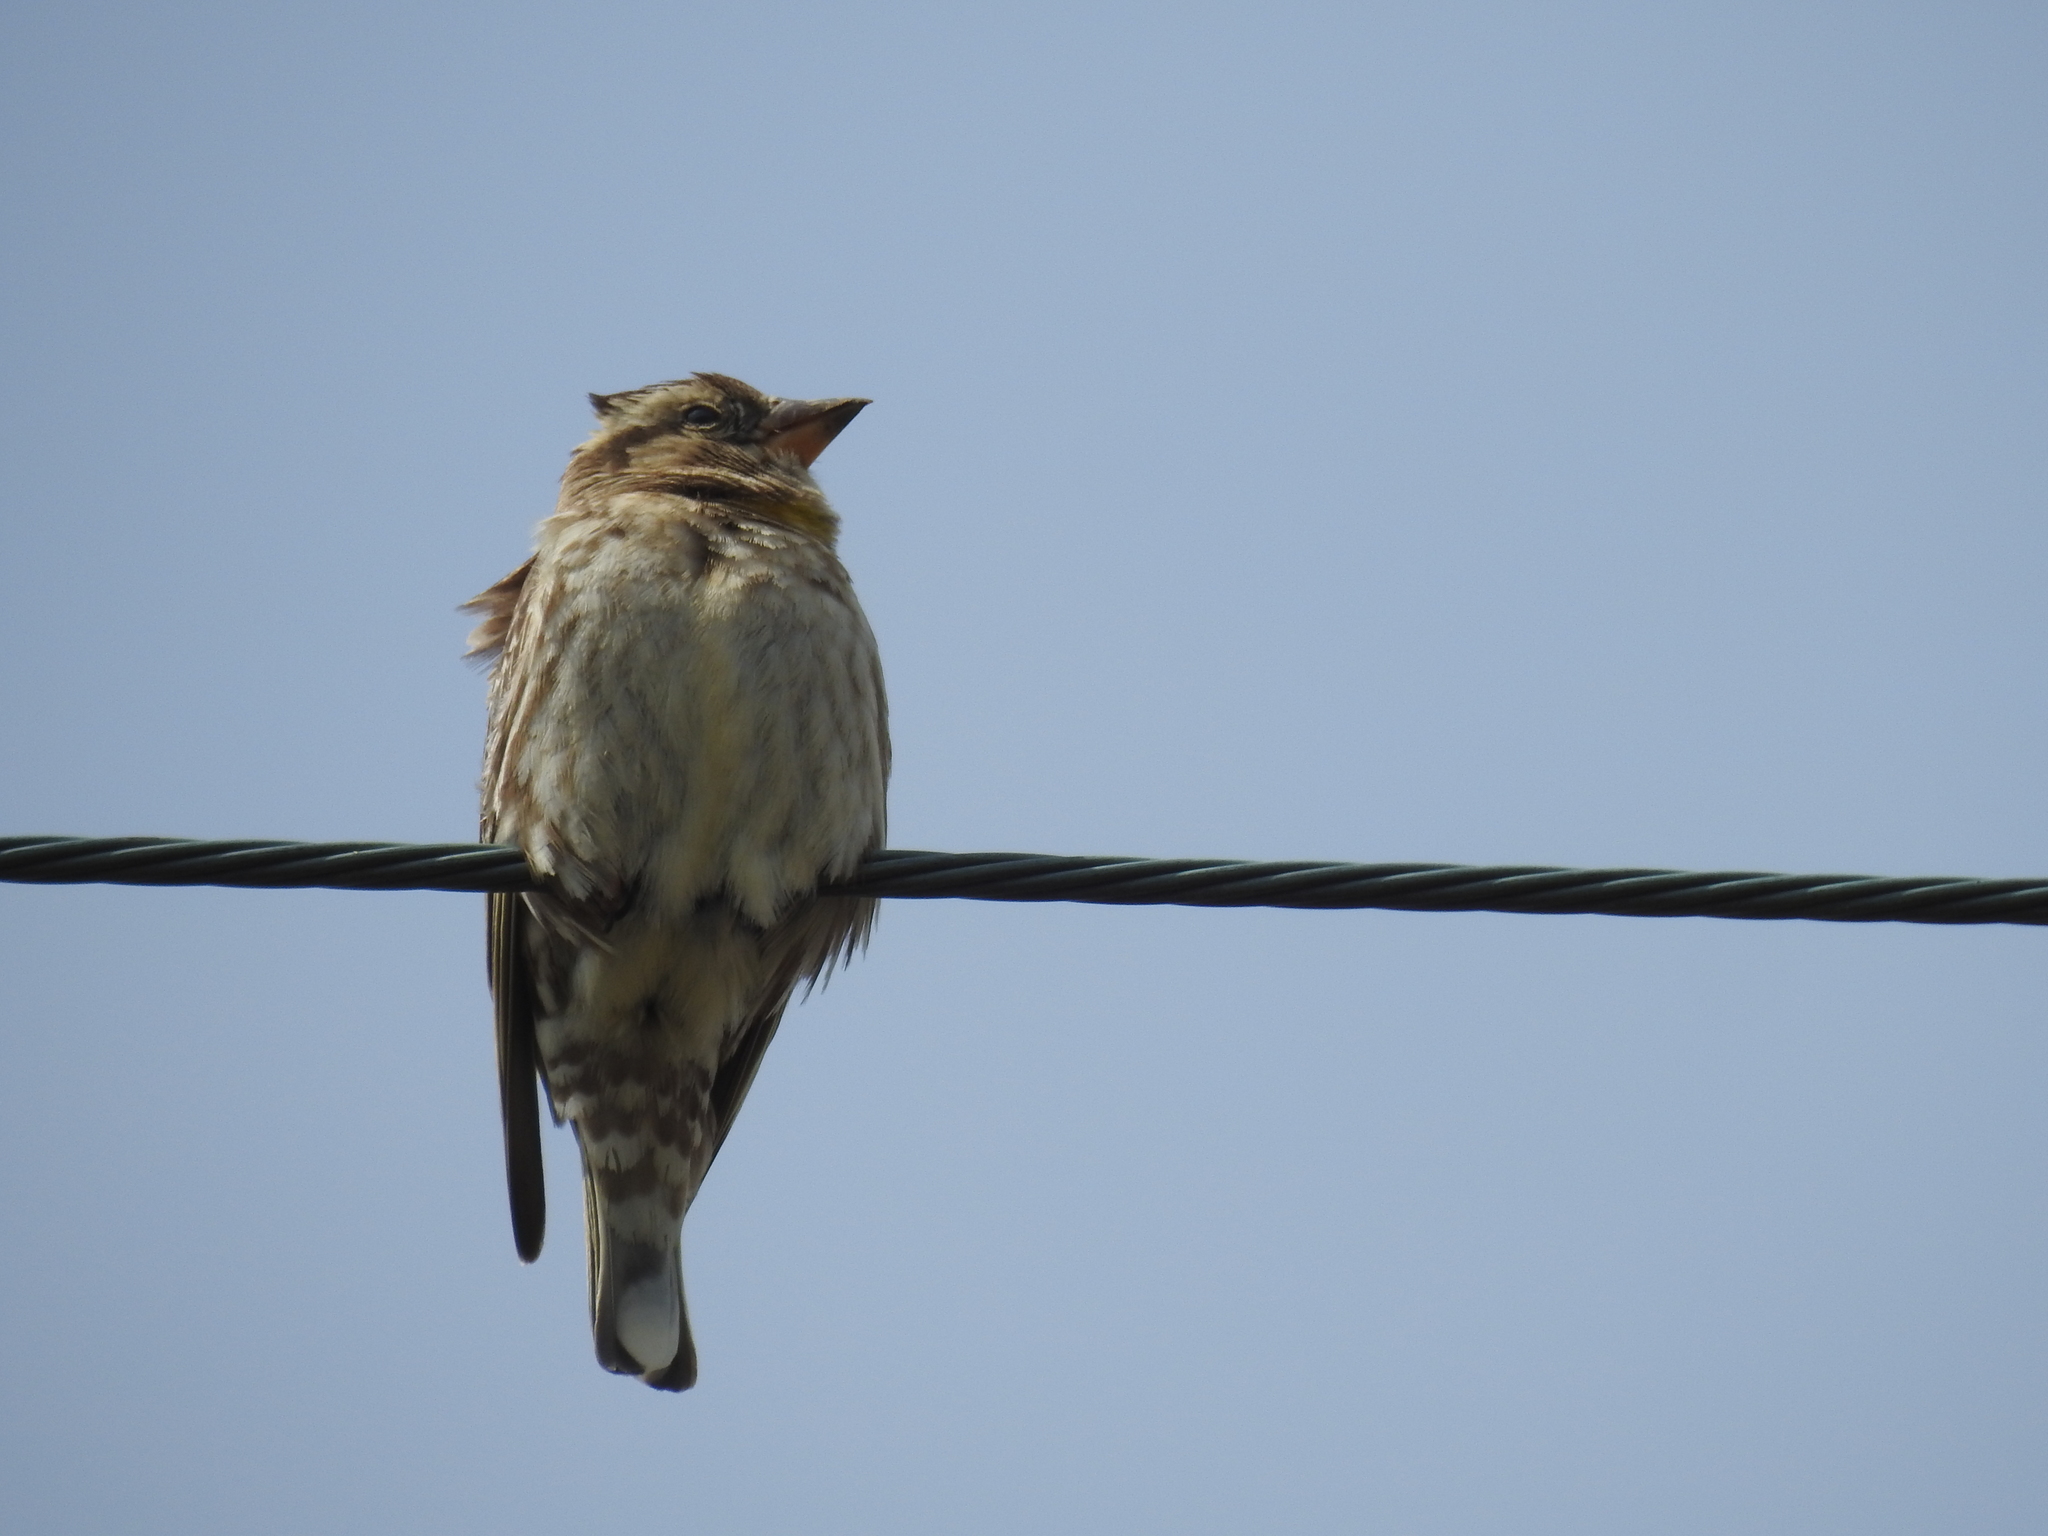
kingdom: Animalia
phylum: Chordata
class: Aves
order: Passeriformes
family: Passeridae
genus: Petronia
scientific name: Petronia petronia
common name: Rock sparrow
